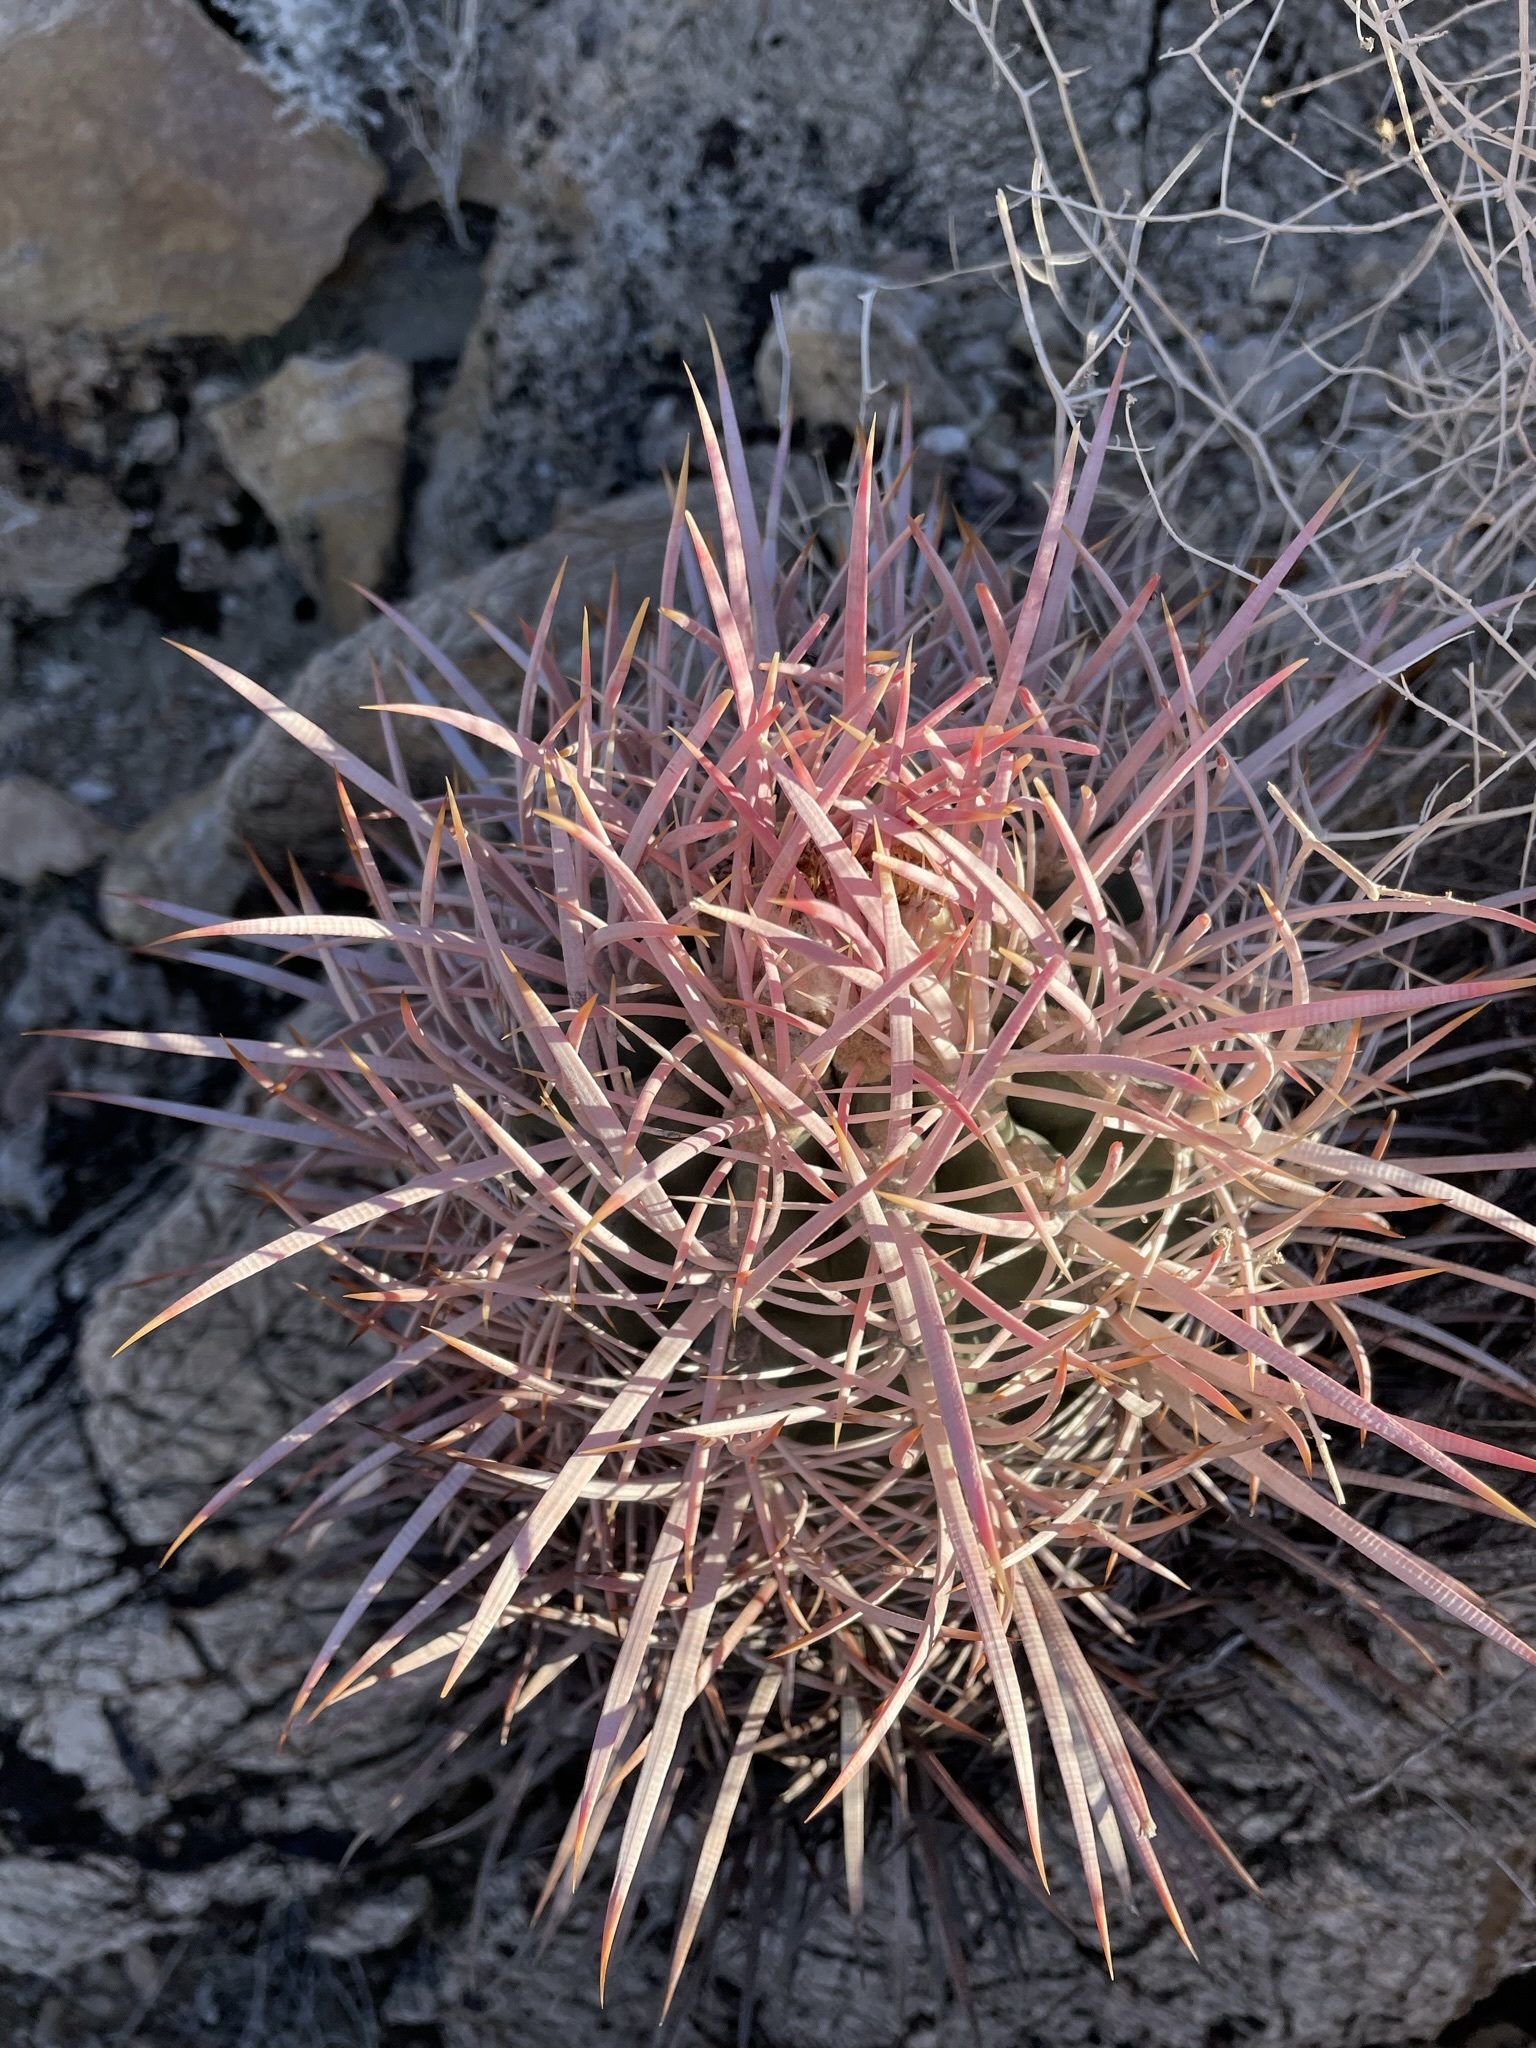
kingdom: Plantae
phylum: Tracheophyta
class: Magnoliopsida
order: Caryophyllales
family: Cactaceae
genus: Echinocactus
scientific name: Echinocactus polycephalus
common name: Cottontop cactus
